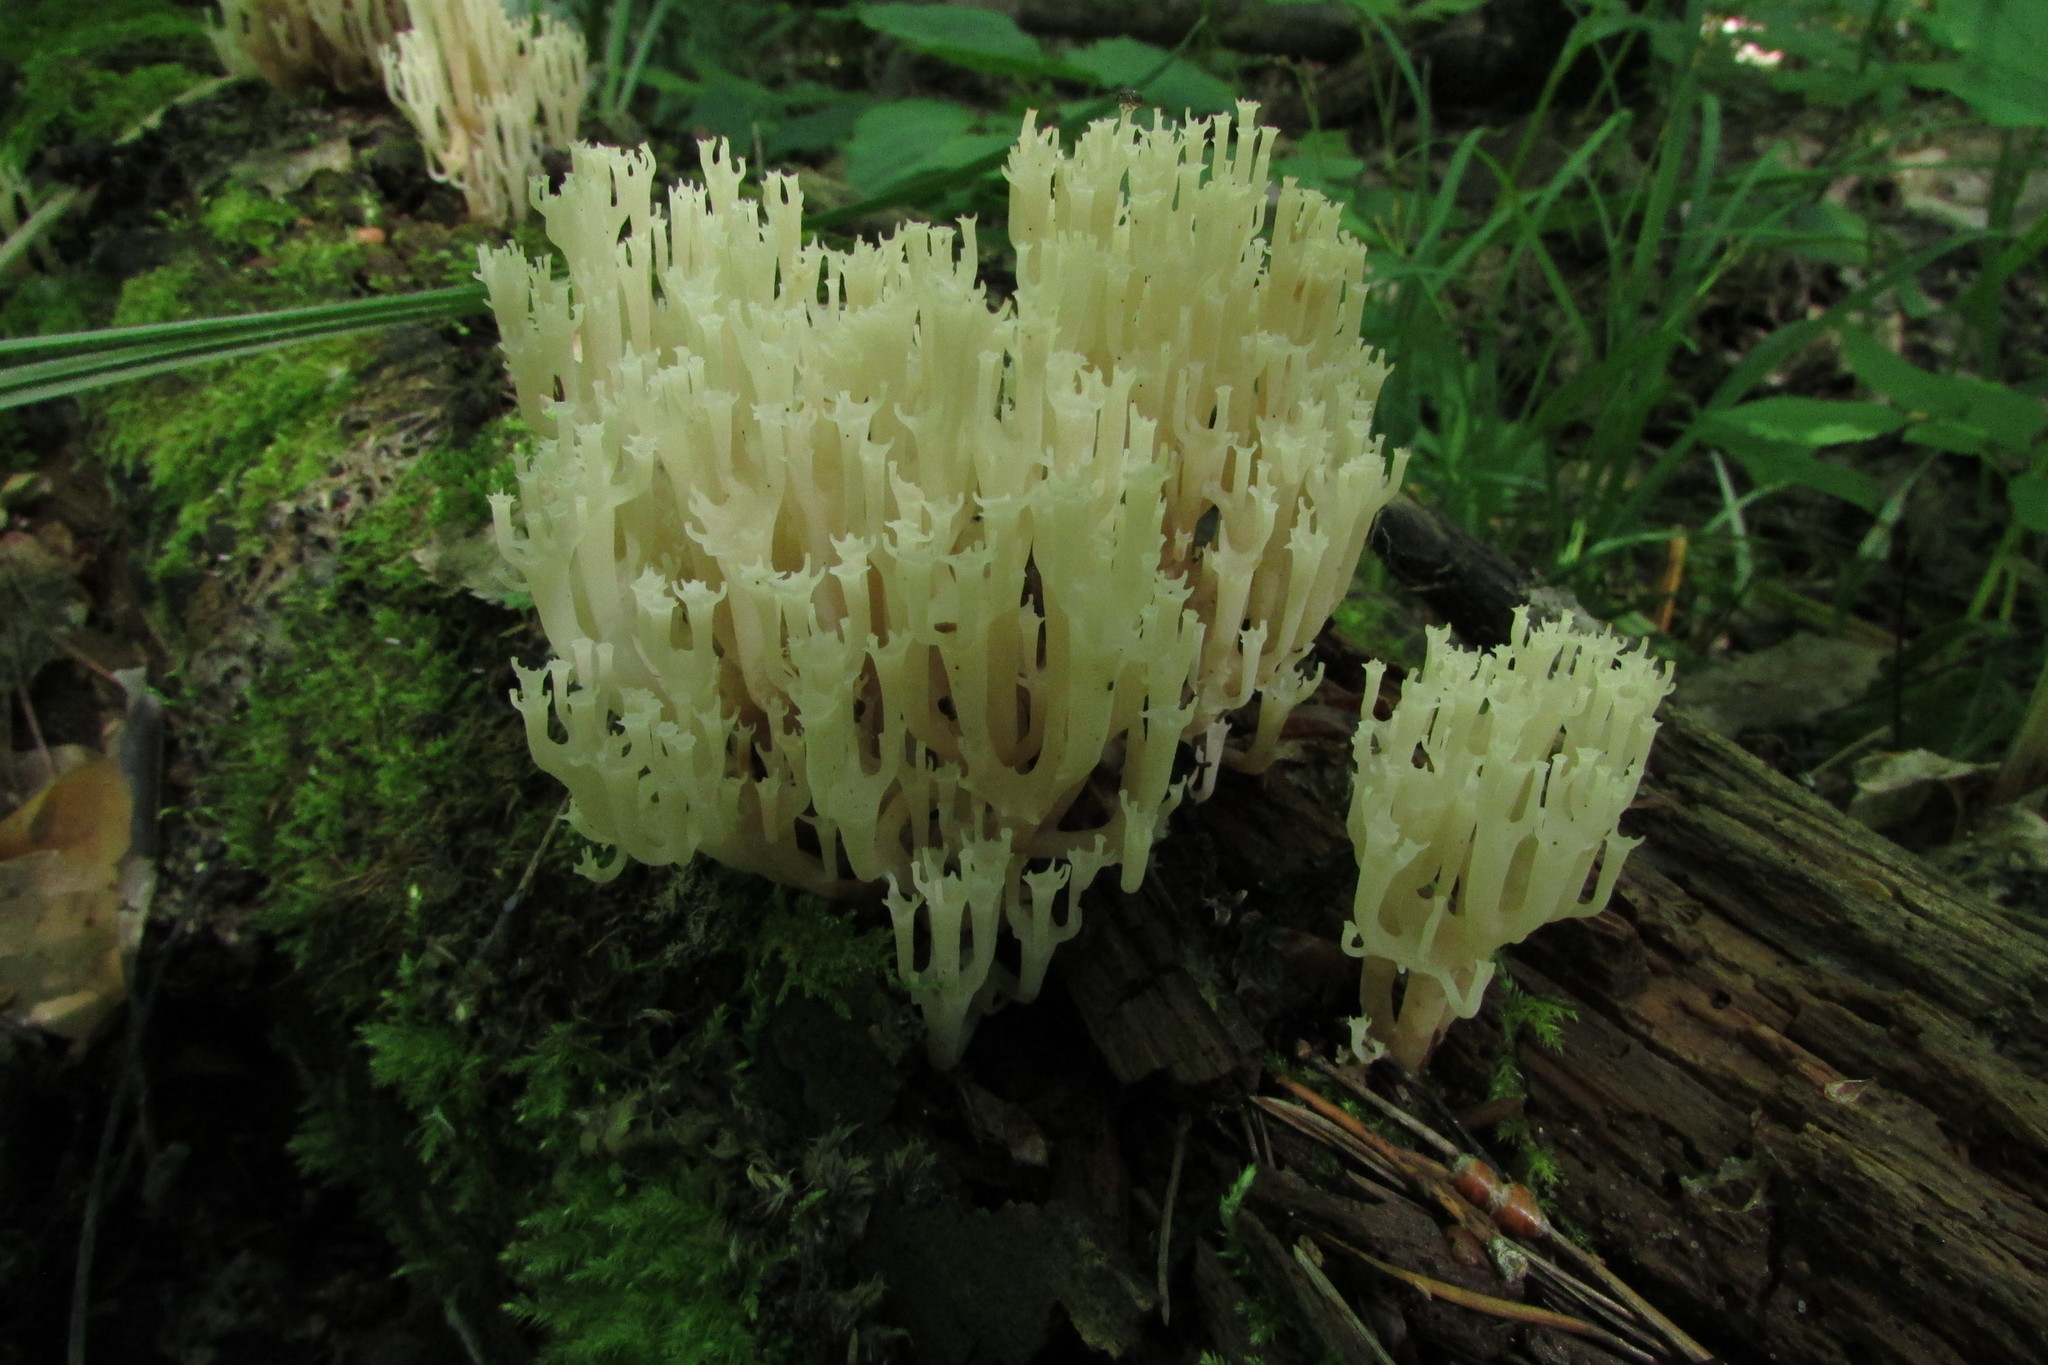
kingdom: Fungi
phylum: Basidiomycota
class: Agaricomycetes
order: Russulales
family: Auriscalpiaceae
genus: Artomyces
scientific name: Artomyces pyxidatus
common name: Crown-tipped coral fungus
